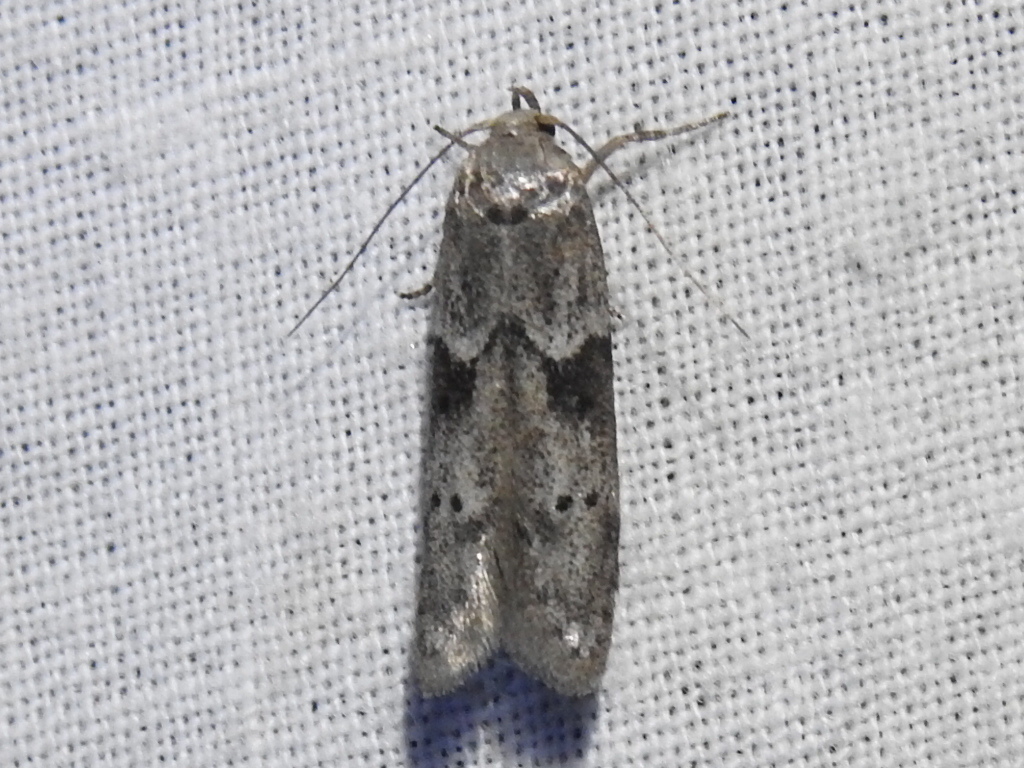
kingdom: Animalia
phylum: Arthropoda
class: Insecta
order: Lepidoptera
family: Blastobasidae
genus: Blastobasis
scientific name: Blastobasis glandulella
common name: Acorn moth
